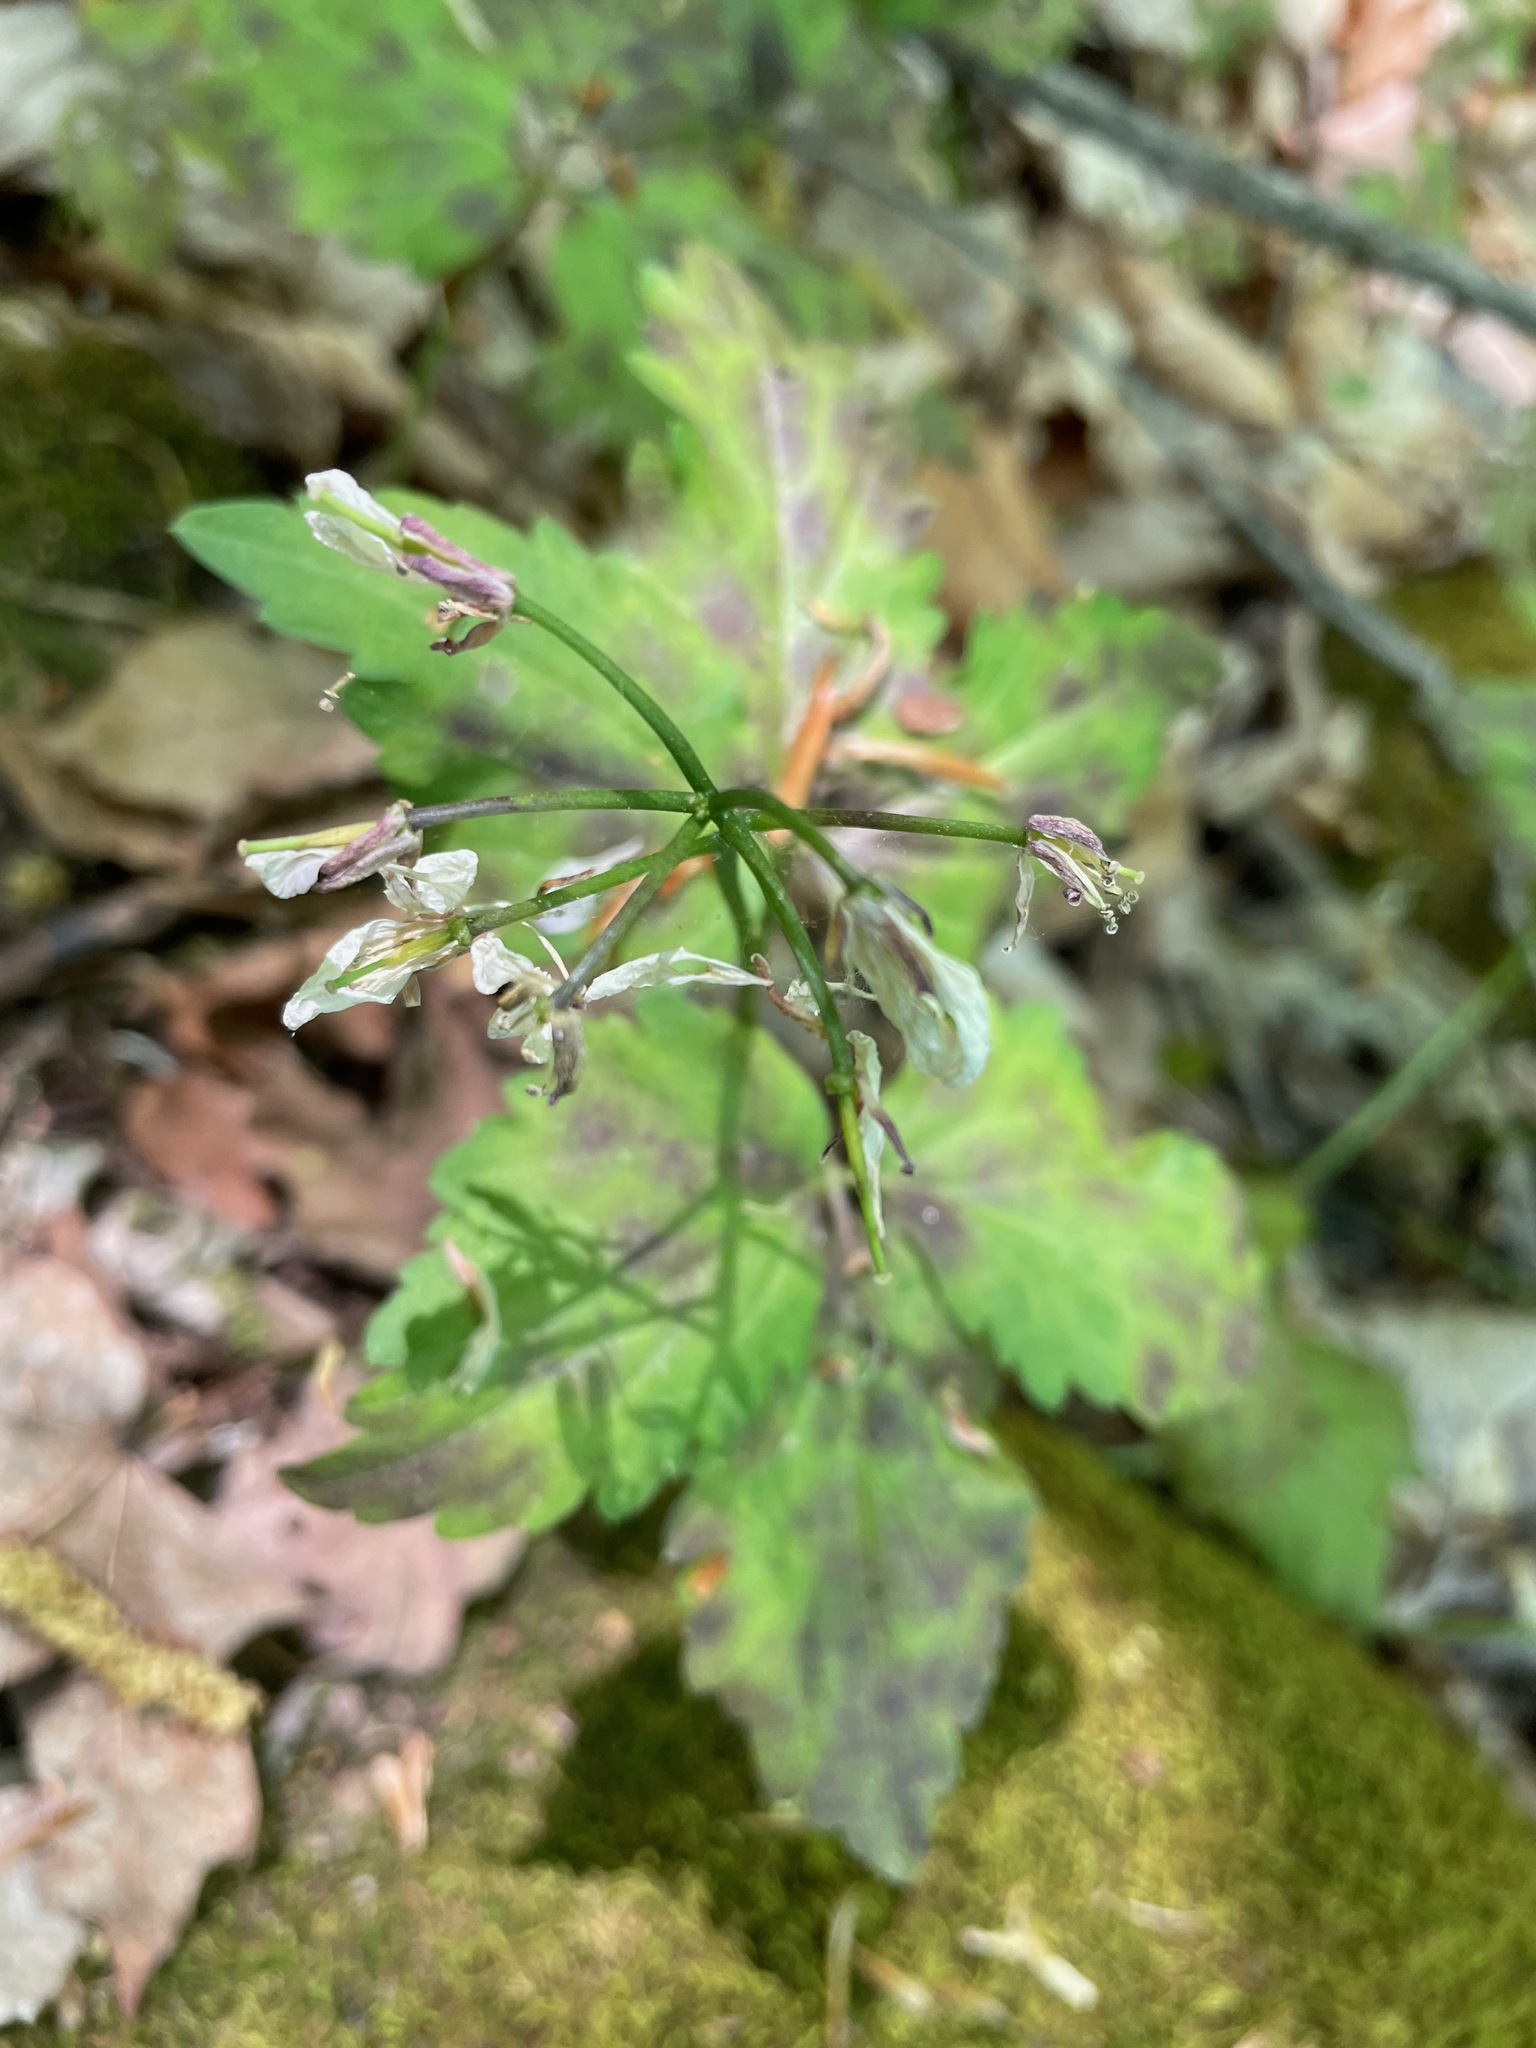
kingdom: Plantae
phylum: Tracheophyta
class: Magnoliopsida
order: Brassicales
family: Brassicaceae
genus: Cardamine
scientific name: Cardamine diphylla
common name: Broad-leaved toothwort
